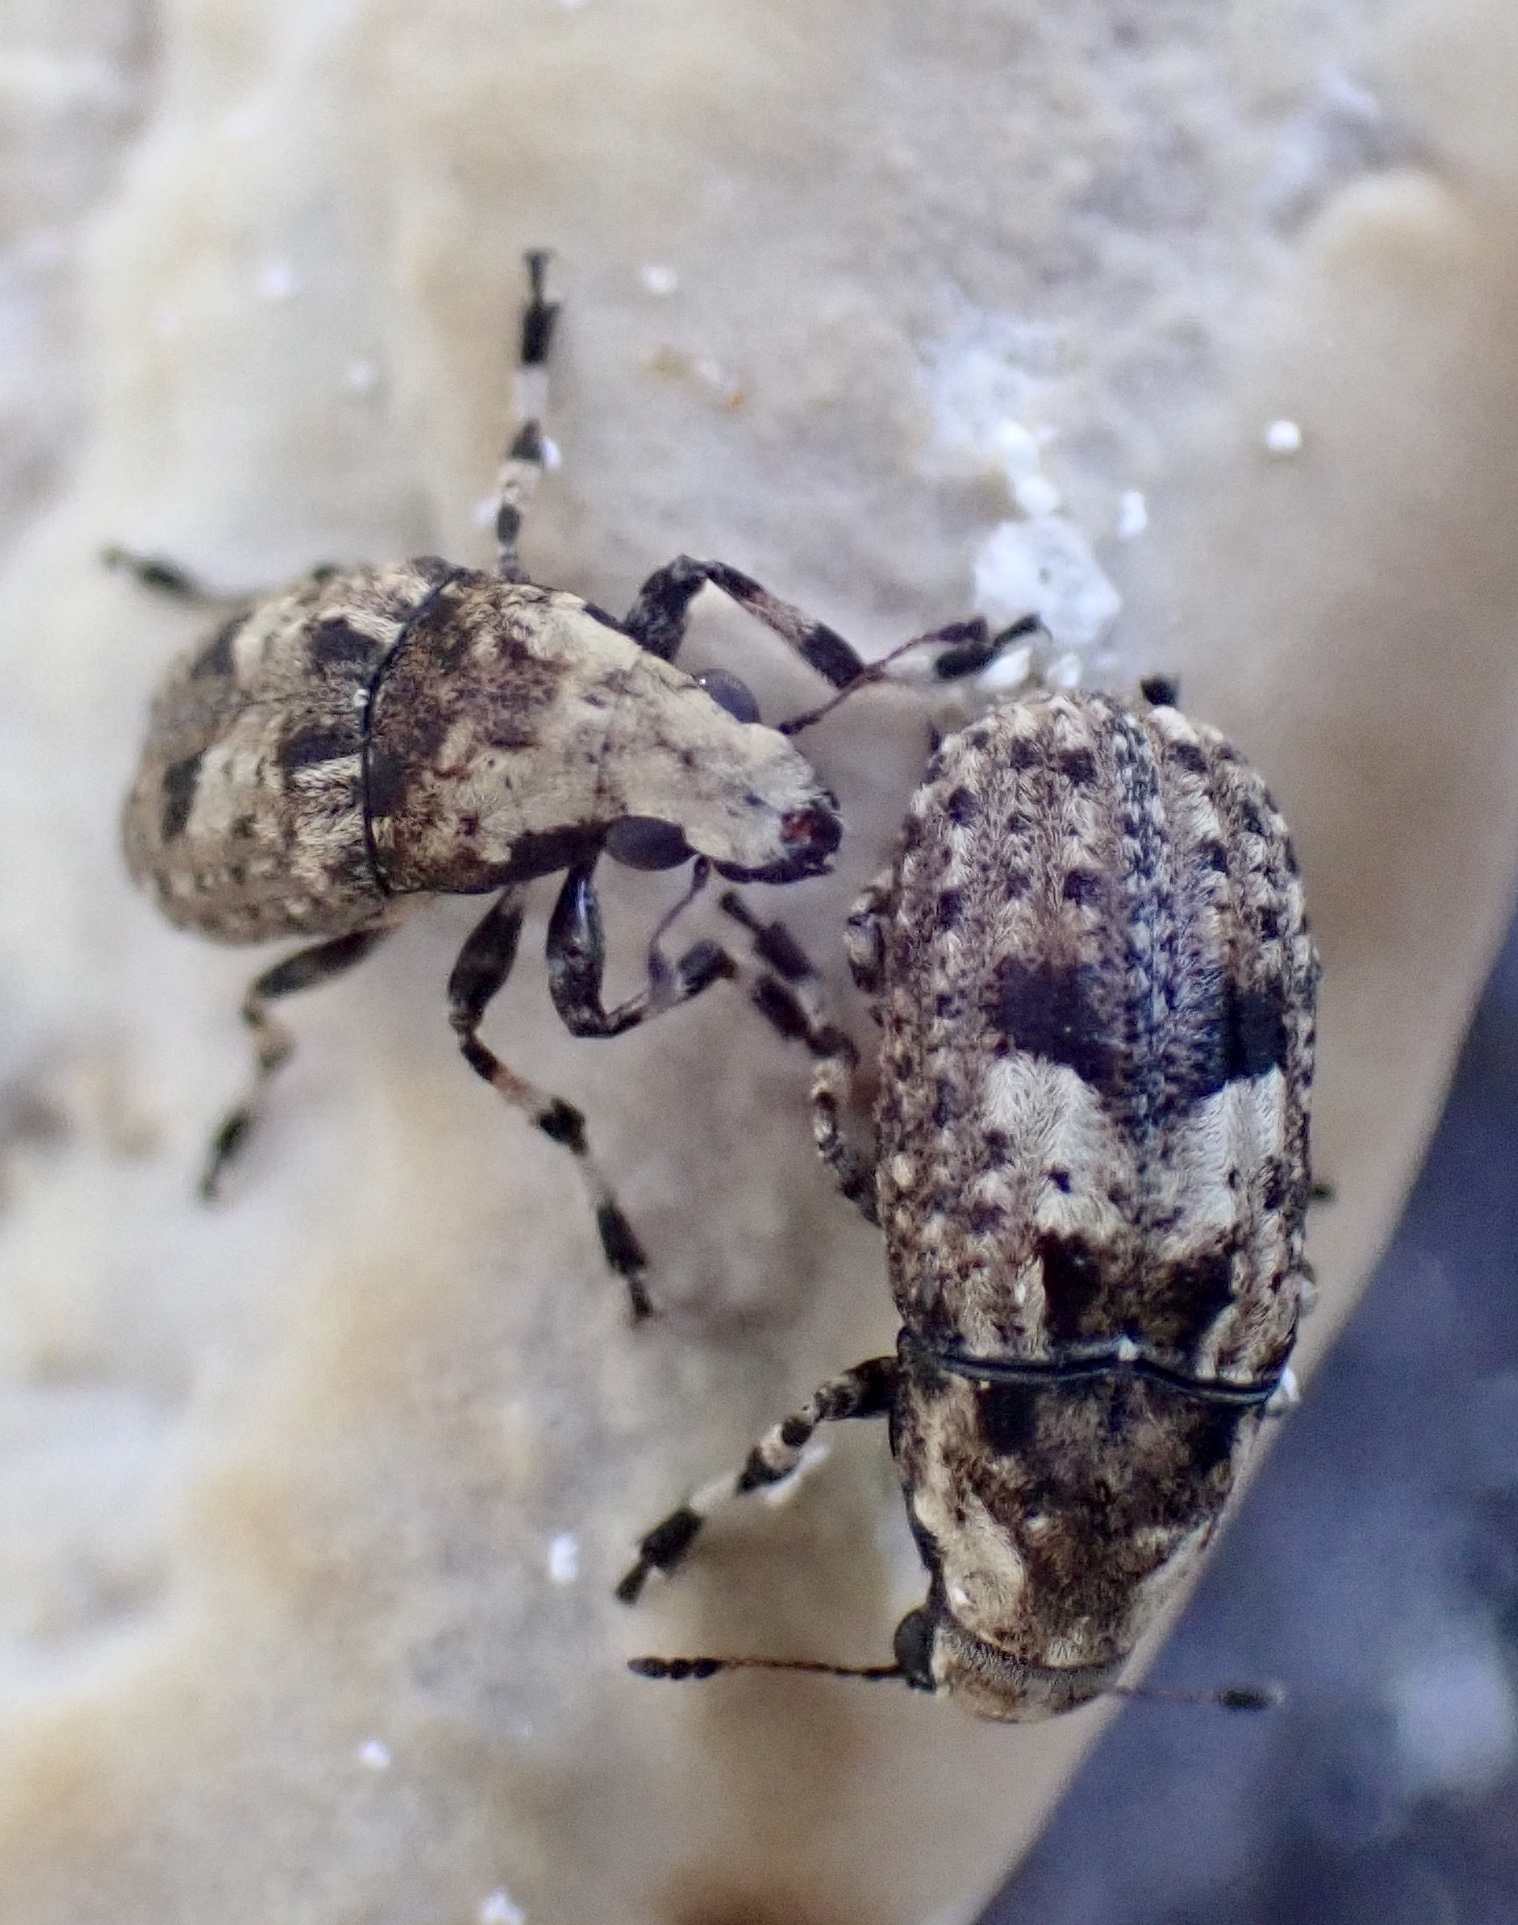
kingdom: Animalia
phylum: Arthropoda
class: Insecta
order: Coleoptera
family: Anthribidae
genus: Euparius
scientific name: Euparius marmoreus
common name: Marbled fungus weevil
